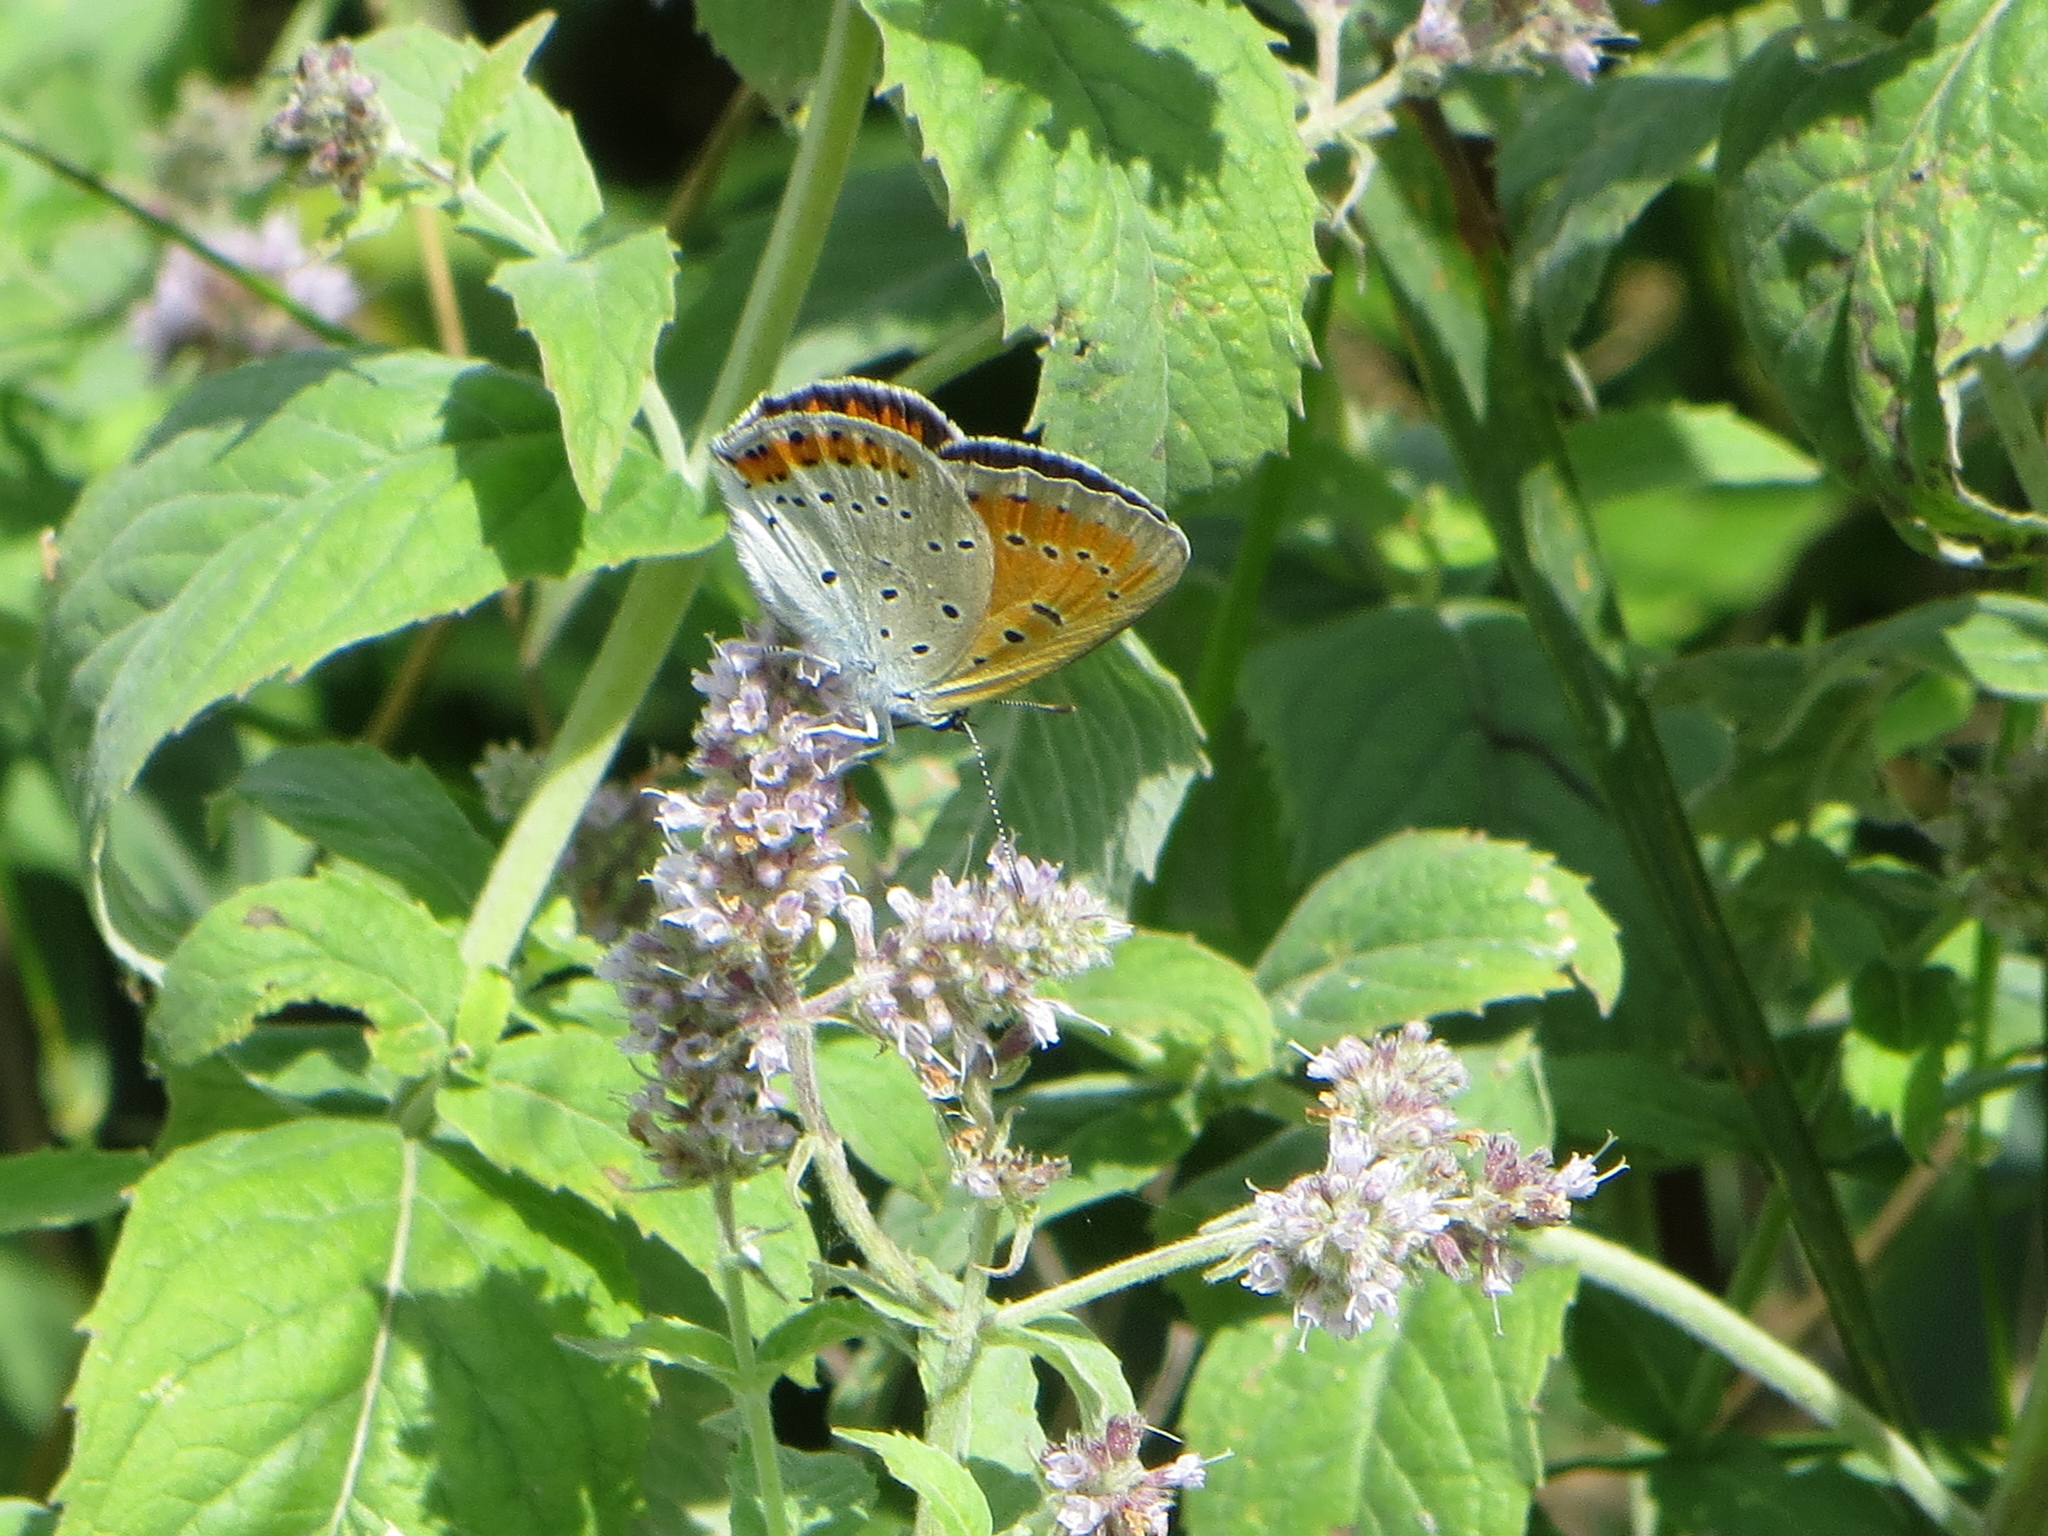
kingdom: Animalia
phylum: Arthropoda
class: Insecta
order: Lepidoptera
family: Lycaenidae
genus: Lycaena
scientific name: Lycaena dispar
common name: Large copper
